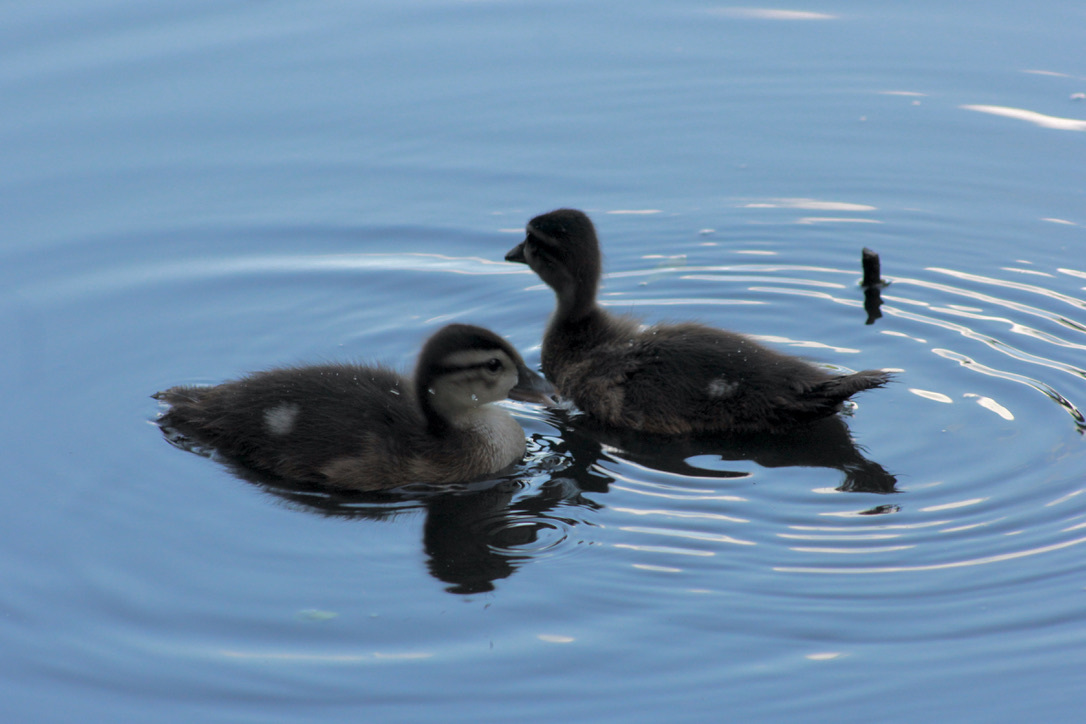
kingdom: Animalia
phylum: Chordata
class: Aves
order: Anseriformes
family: Anatidae
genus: Aix
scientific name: Aix sponsa
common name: Wood duck
